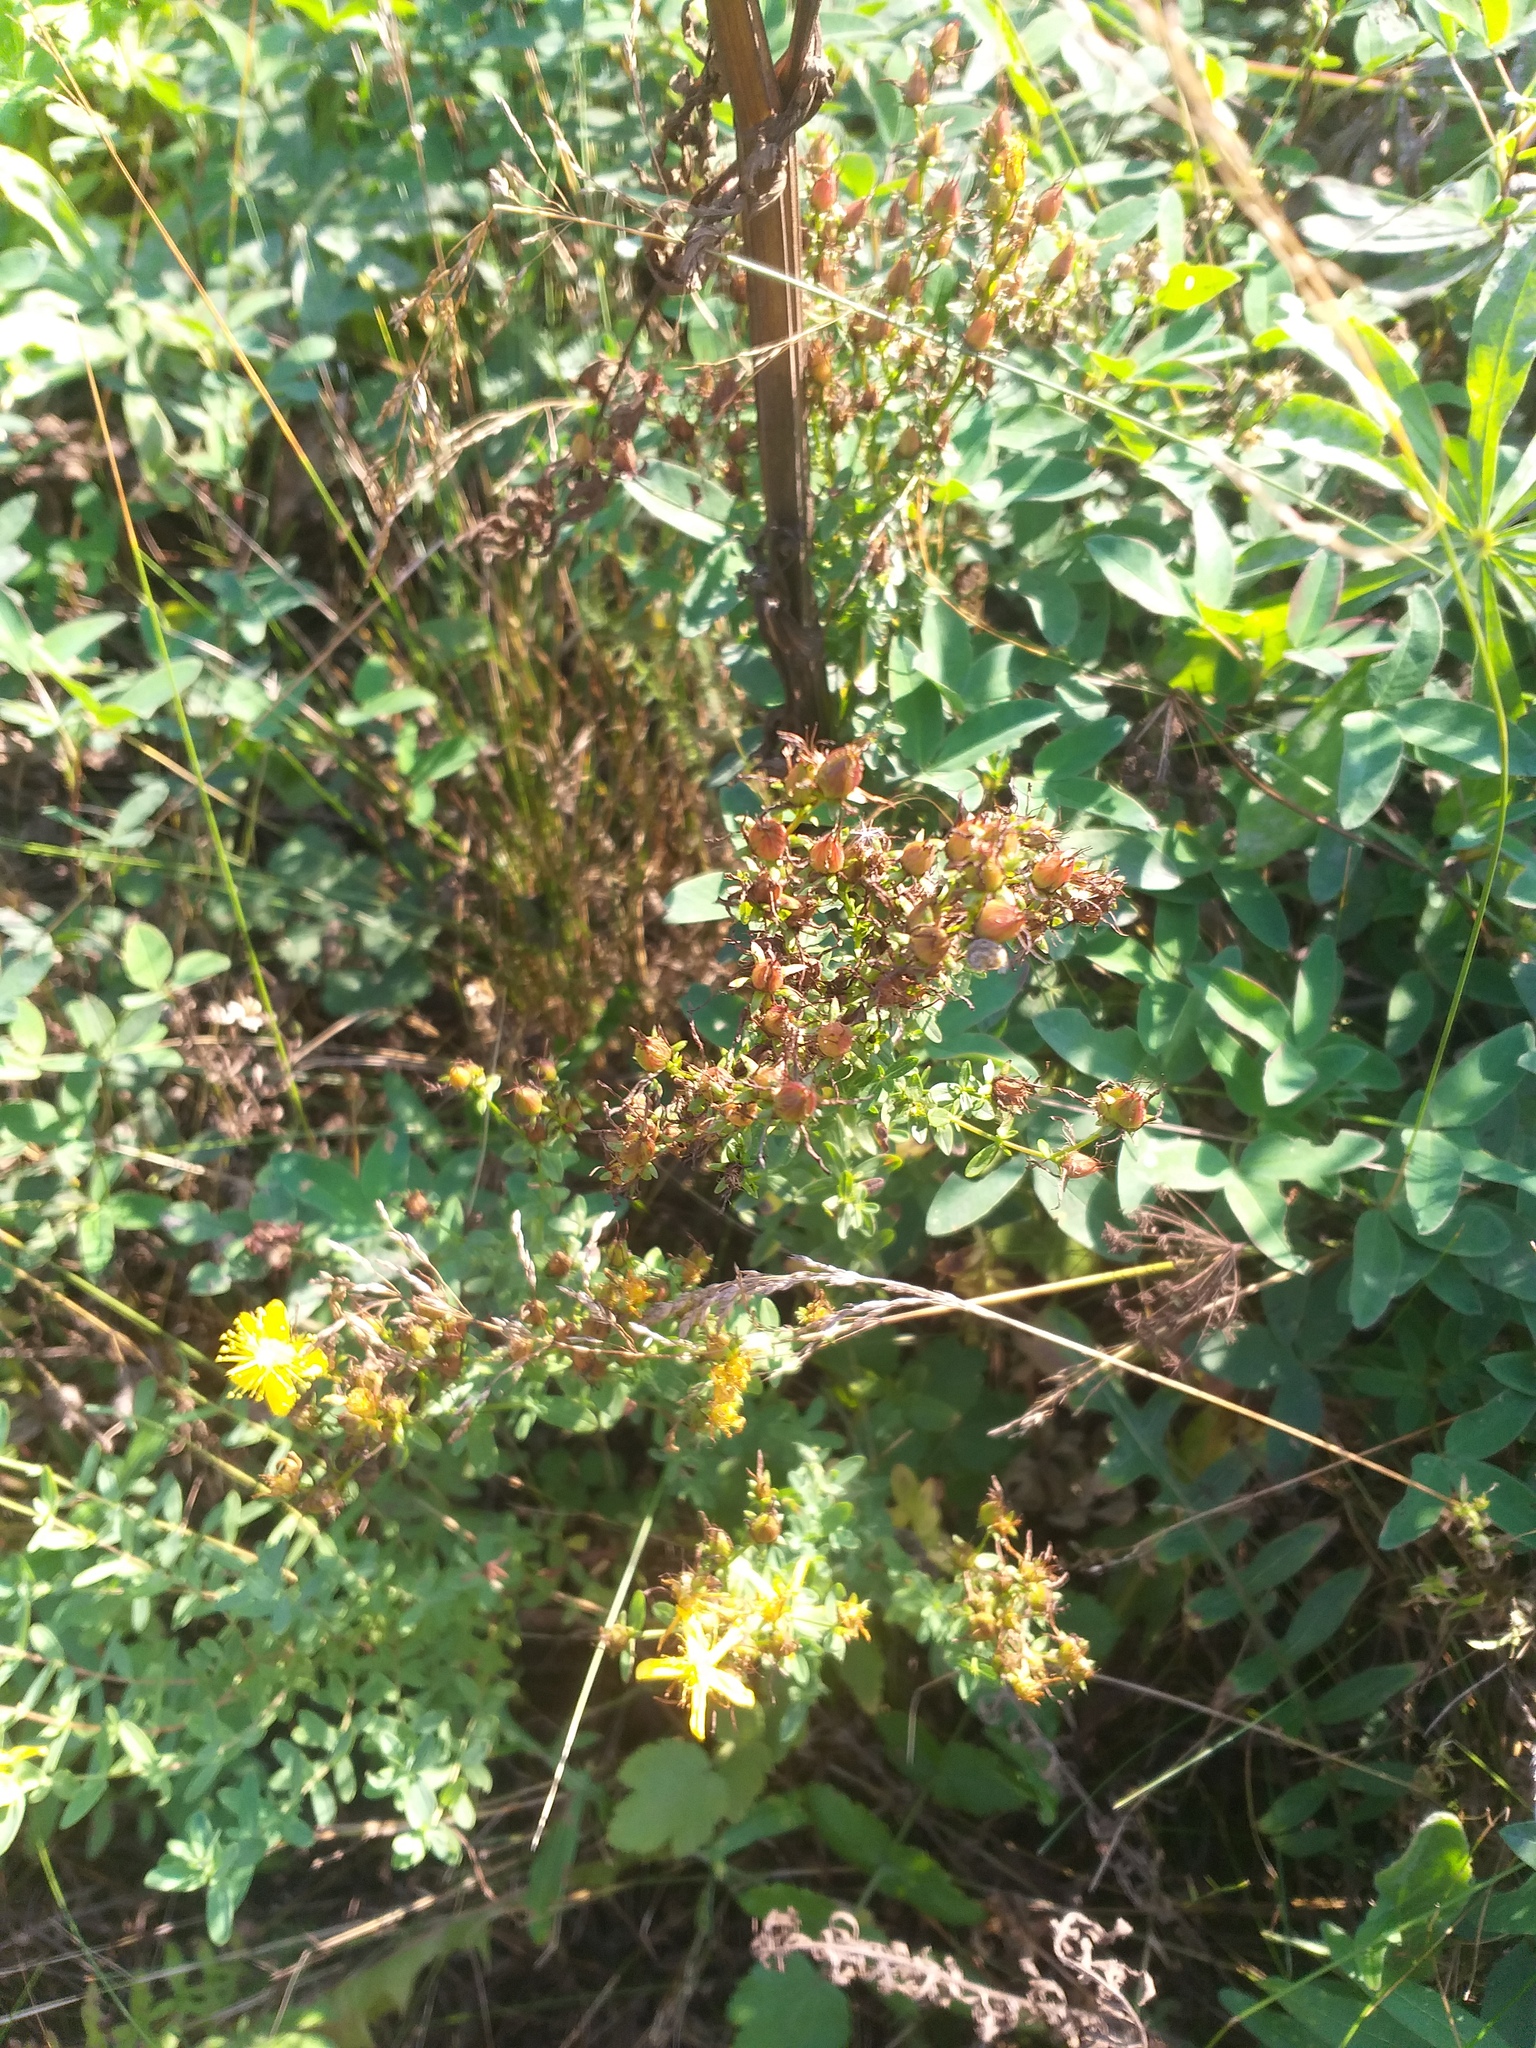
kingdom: Plantae
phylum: Tracheophyta
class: Magnoliopsida
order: Malpighiales
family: Hypericaceae
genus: Hypericum
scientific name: Hypericum perforatum
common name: Common st. johnswort
